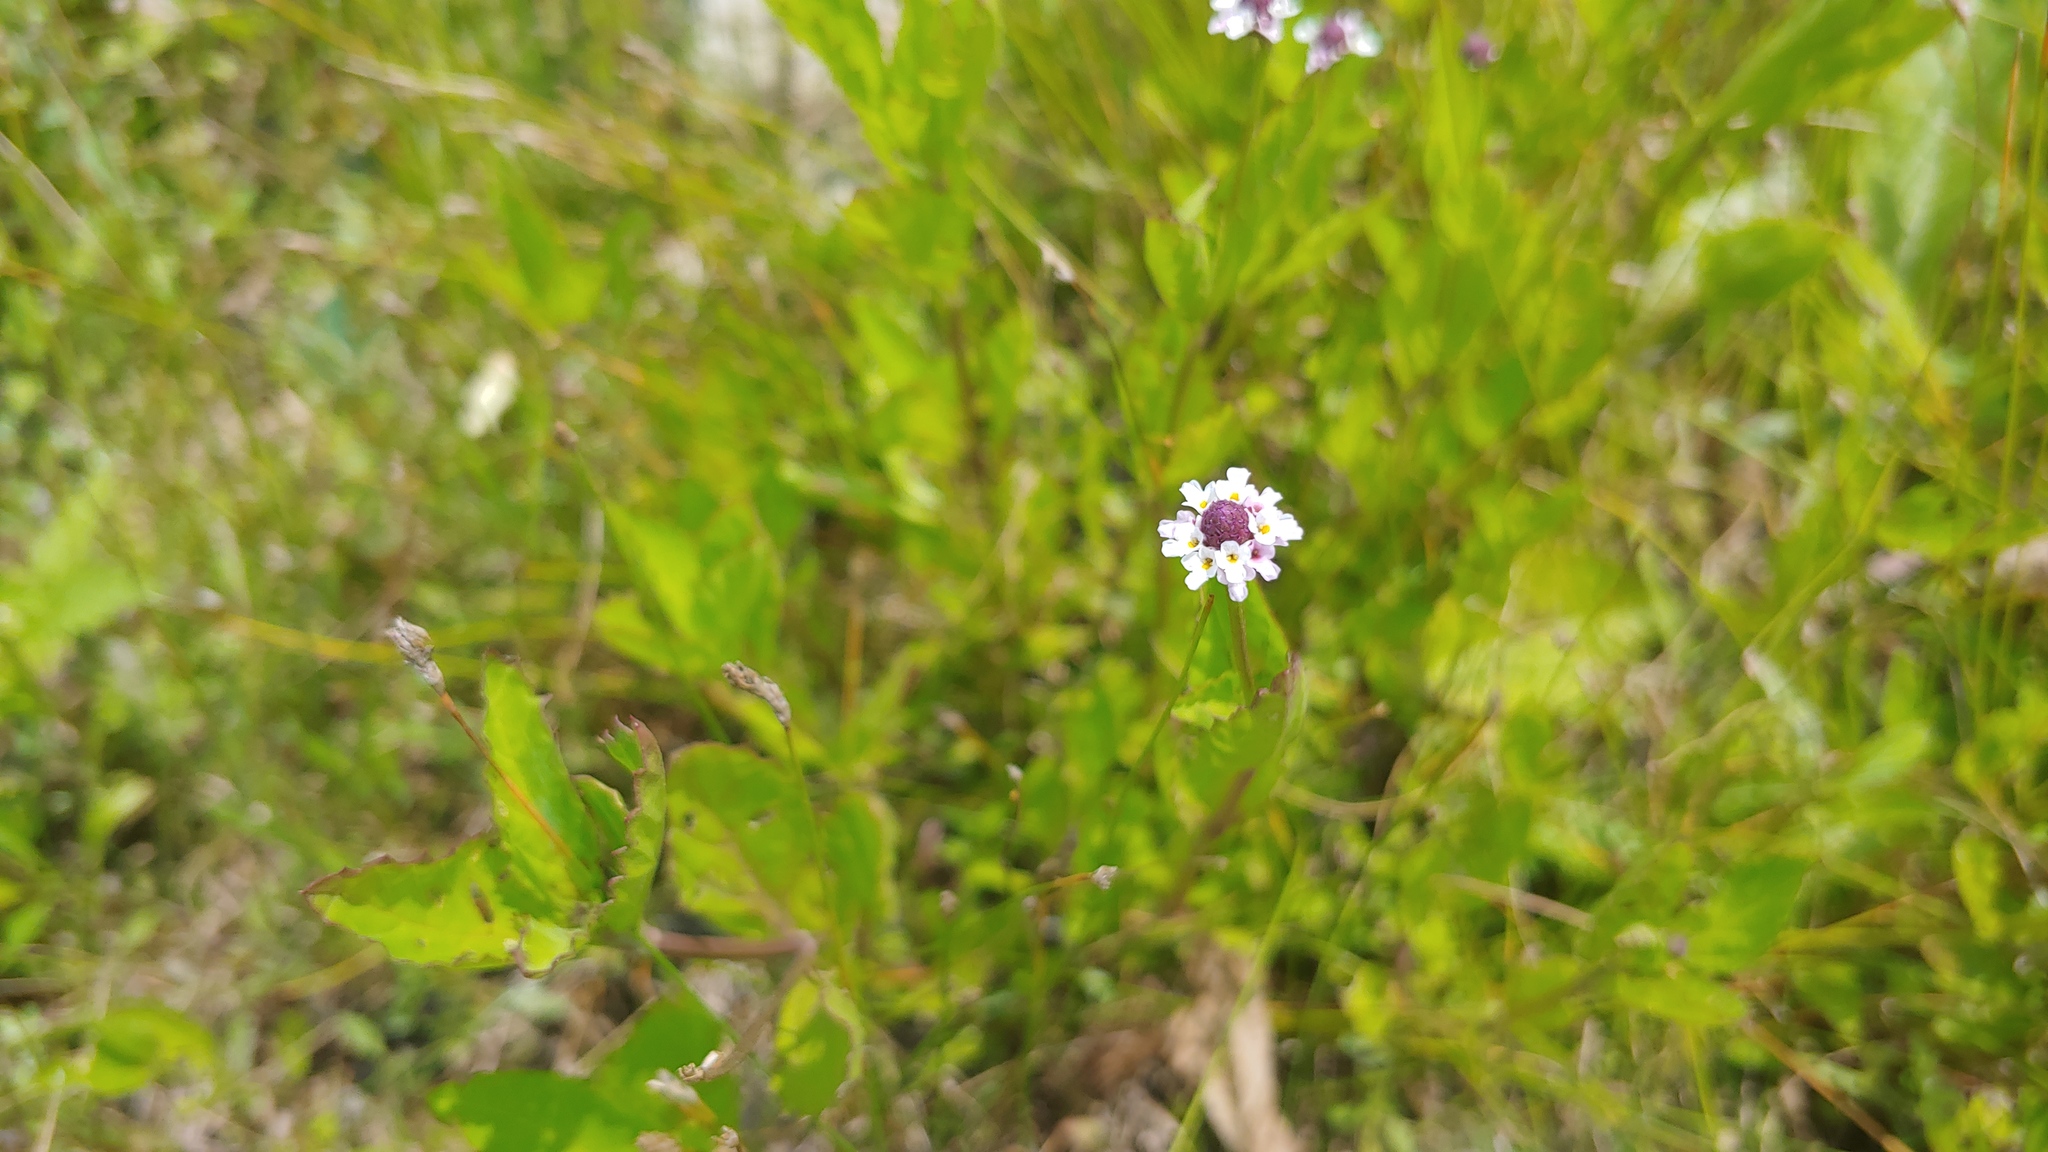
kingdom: Plantae
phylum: Tracheophyta
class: Magnoliopsida
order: Lamiales
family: Verbenaceae
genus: Phyla
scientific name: Phyla lanceolata
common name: Northern fogfruit
